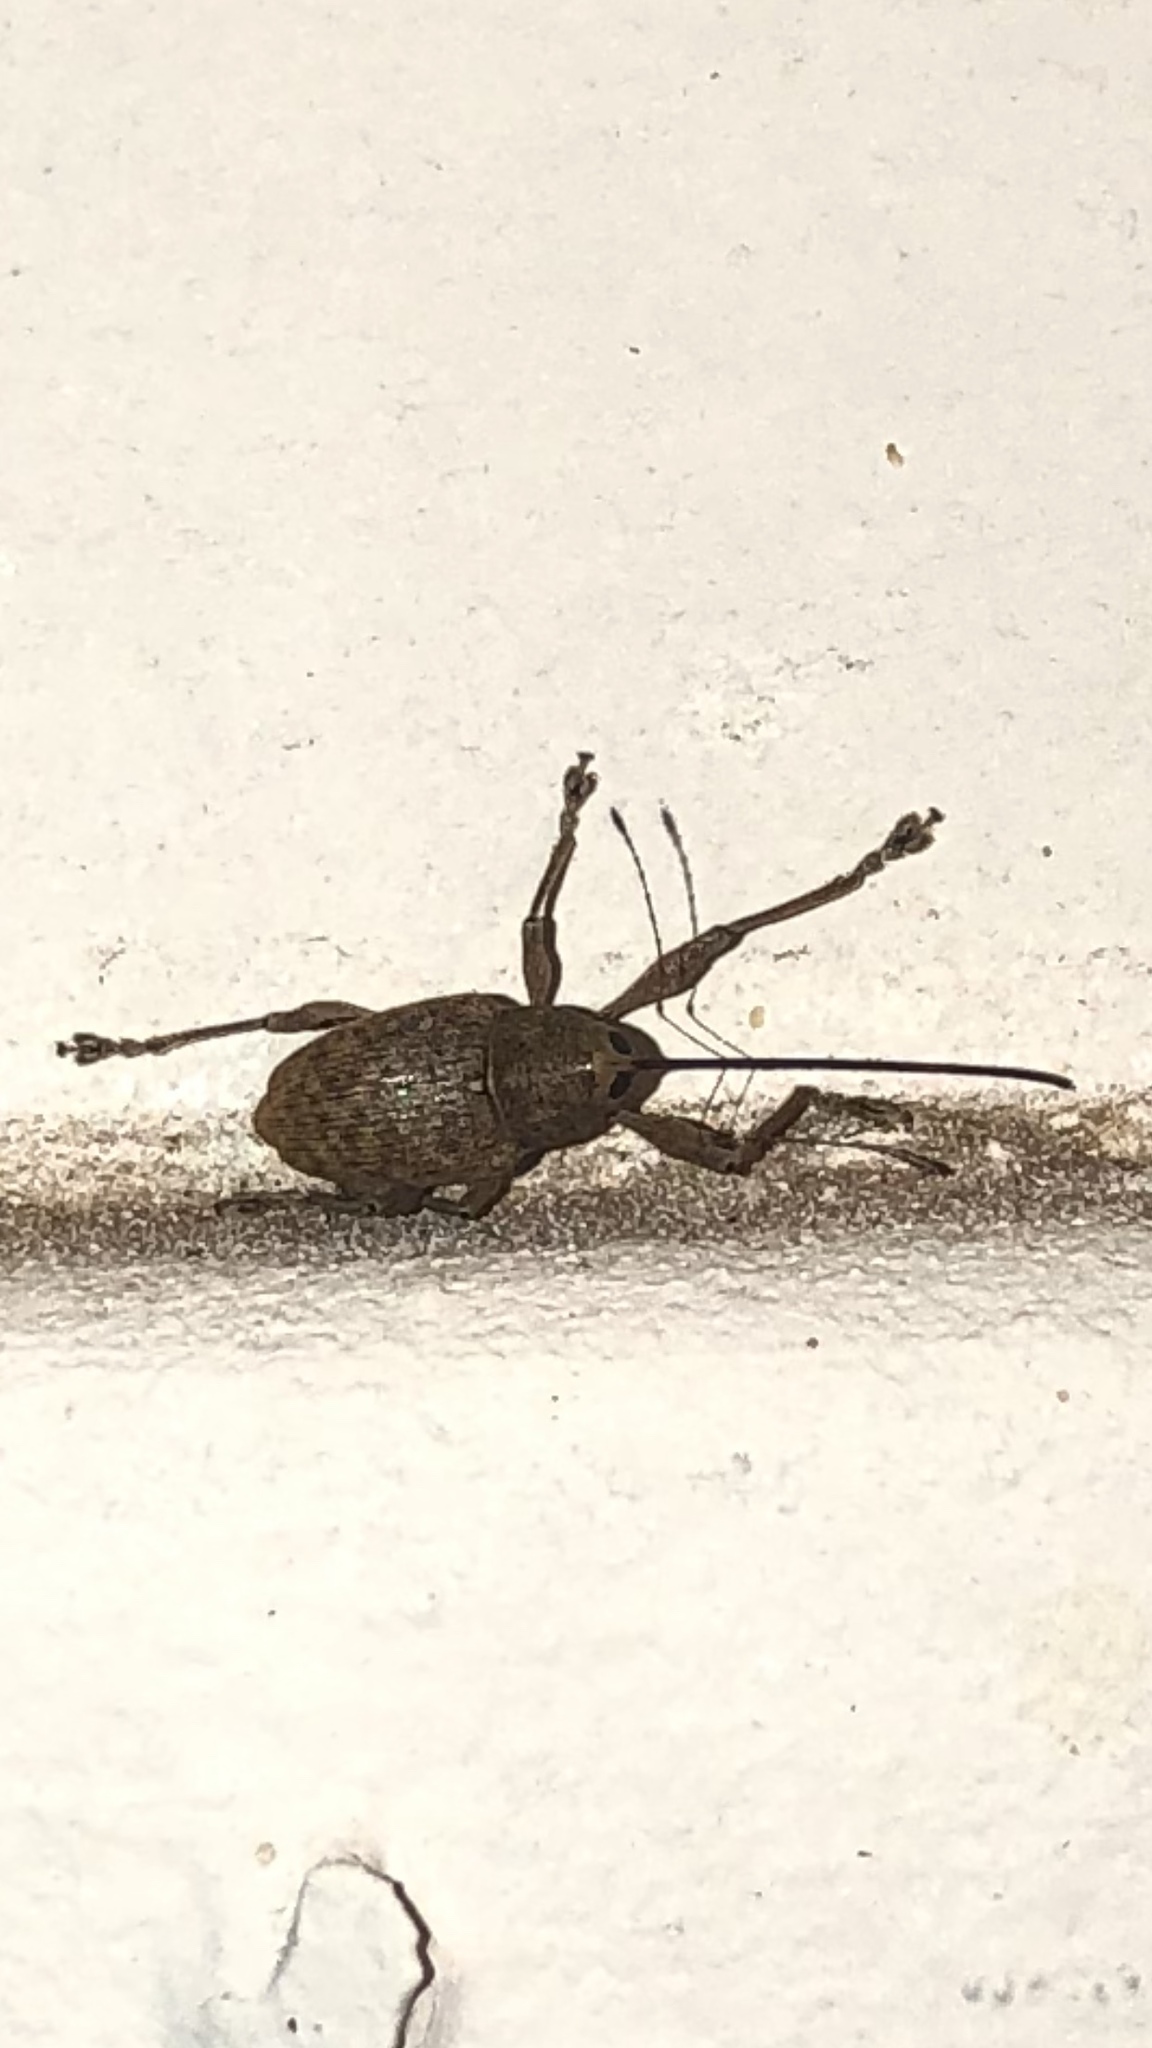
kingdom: Animalia
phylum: Arthropoda
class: Insecta
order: Coleoptera
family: Curculionidae
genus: Curculio
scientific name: Curculio
